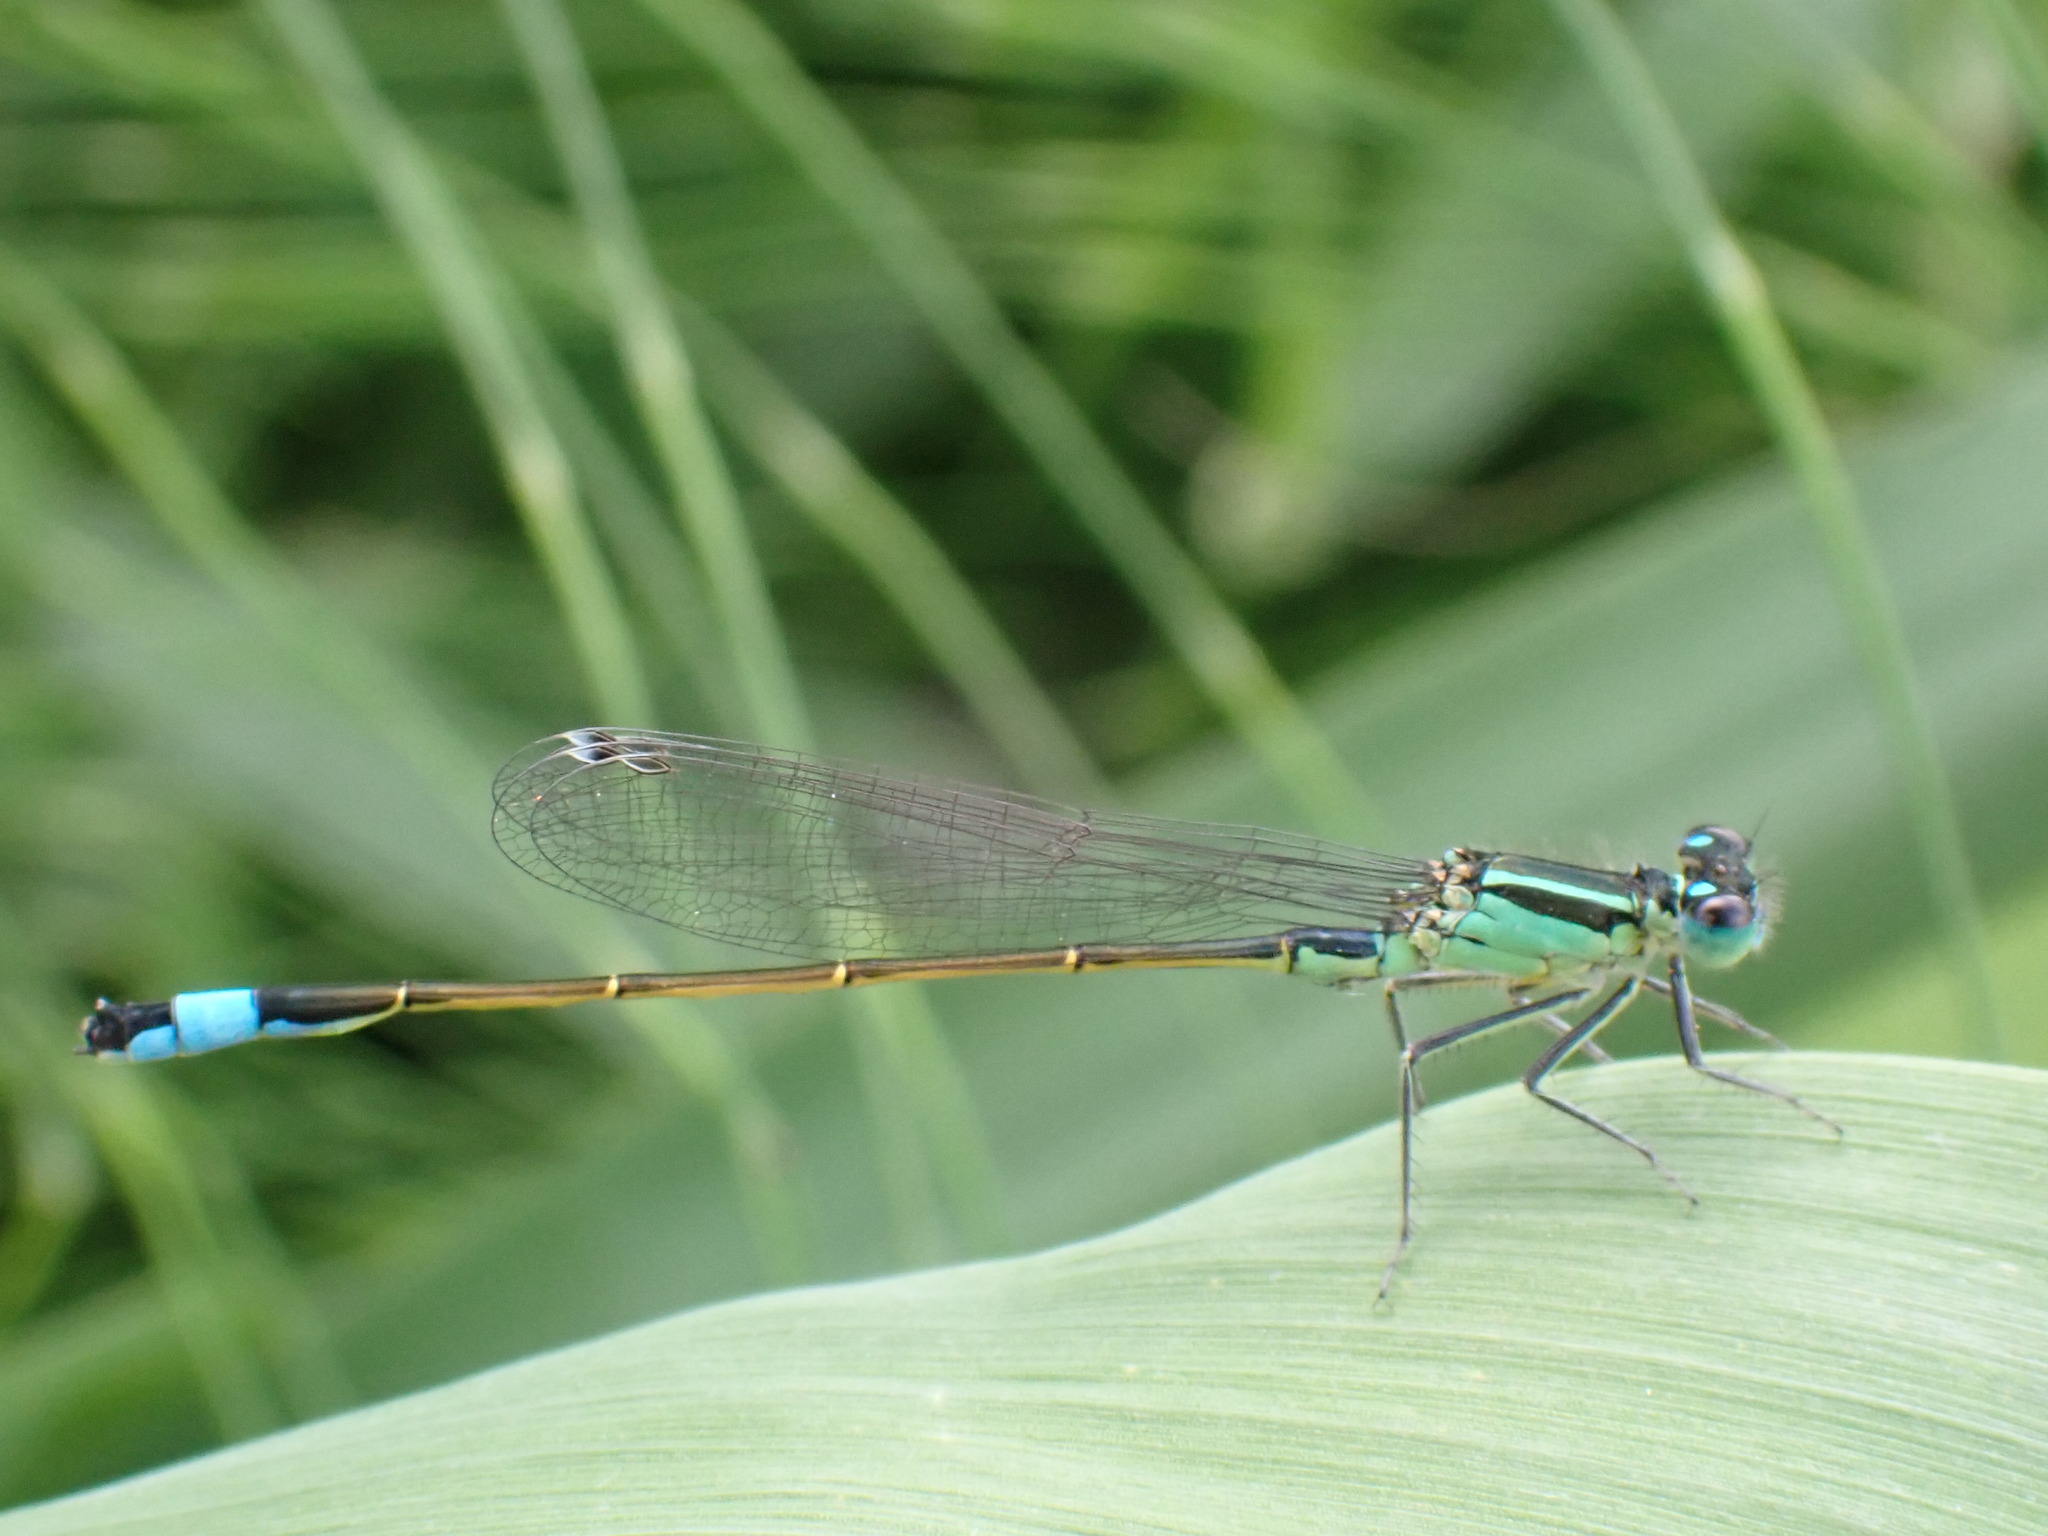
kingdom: Animalia
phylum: Arthropoda
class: Insecta
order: Odonata
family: Coenagrionidae
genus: Ischnura
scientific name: Ischnura elegans
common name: Blue-tailed damselfly
